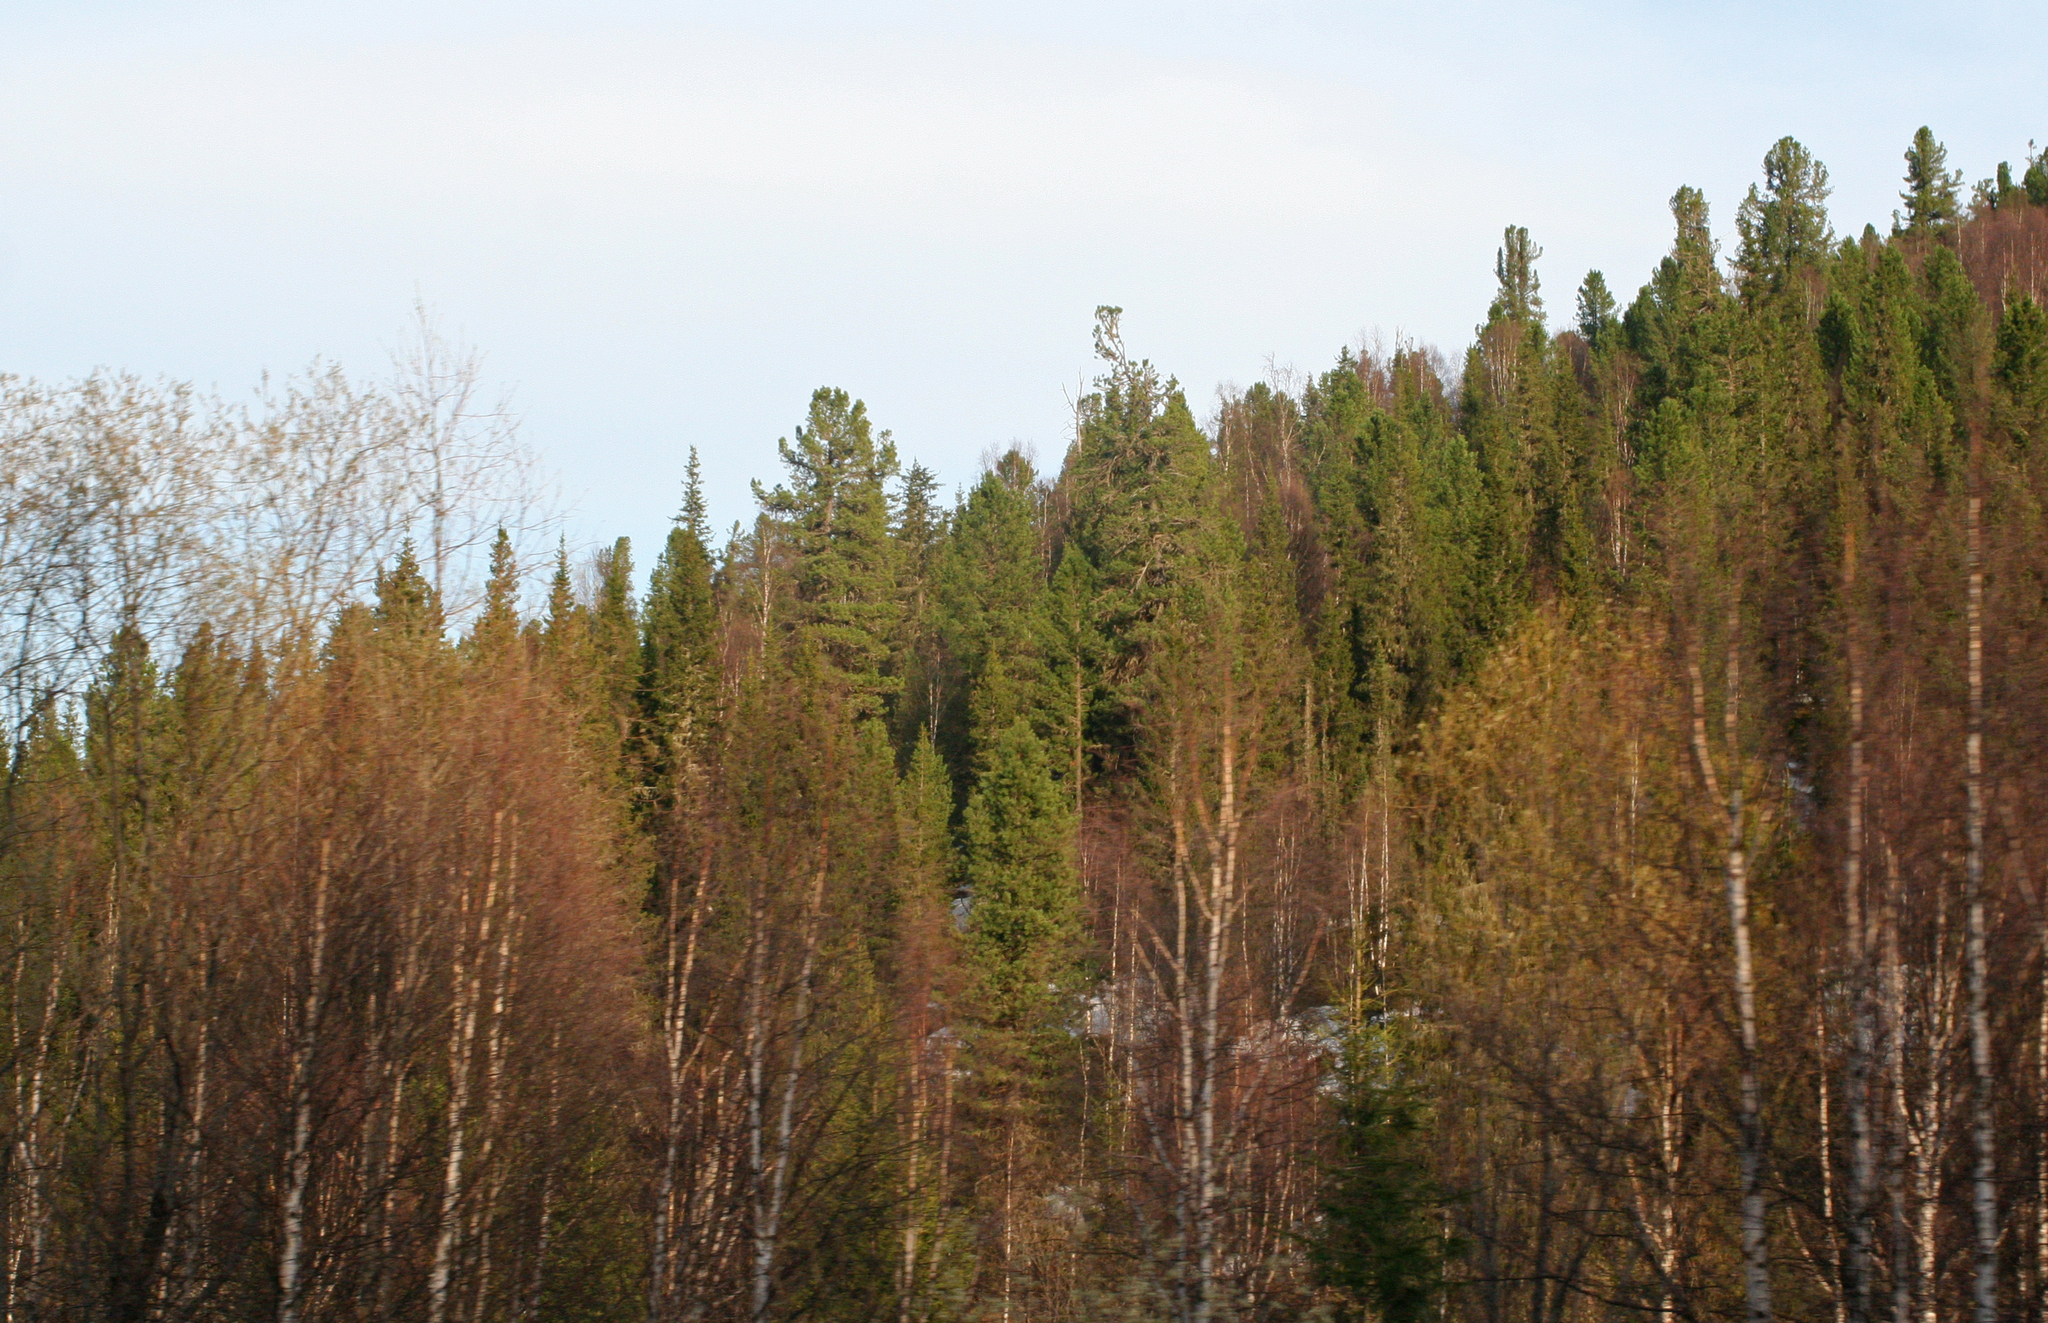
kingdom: Plantae
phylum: Tracheophyta
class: Pinopsida
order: Pinales
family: Pinaceae
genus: Pinus
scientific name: Pinus sibirica
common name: Siberian pine
